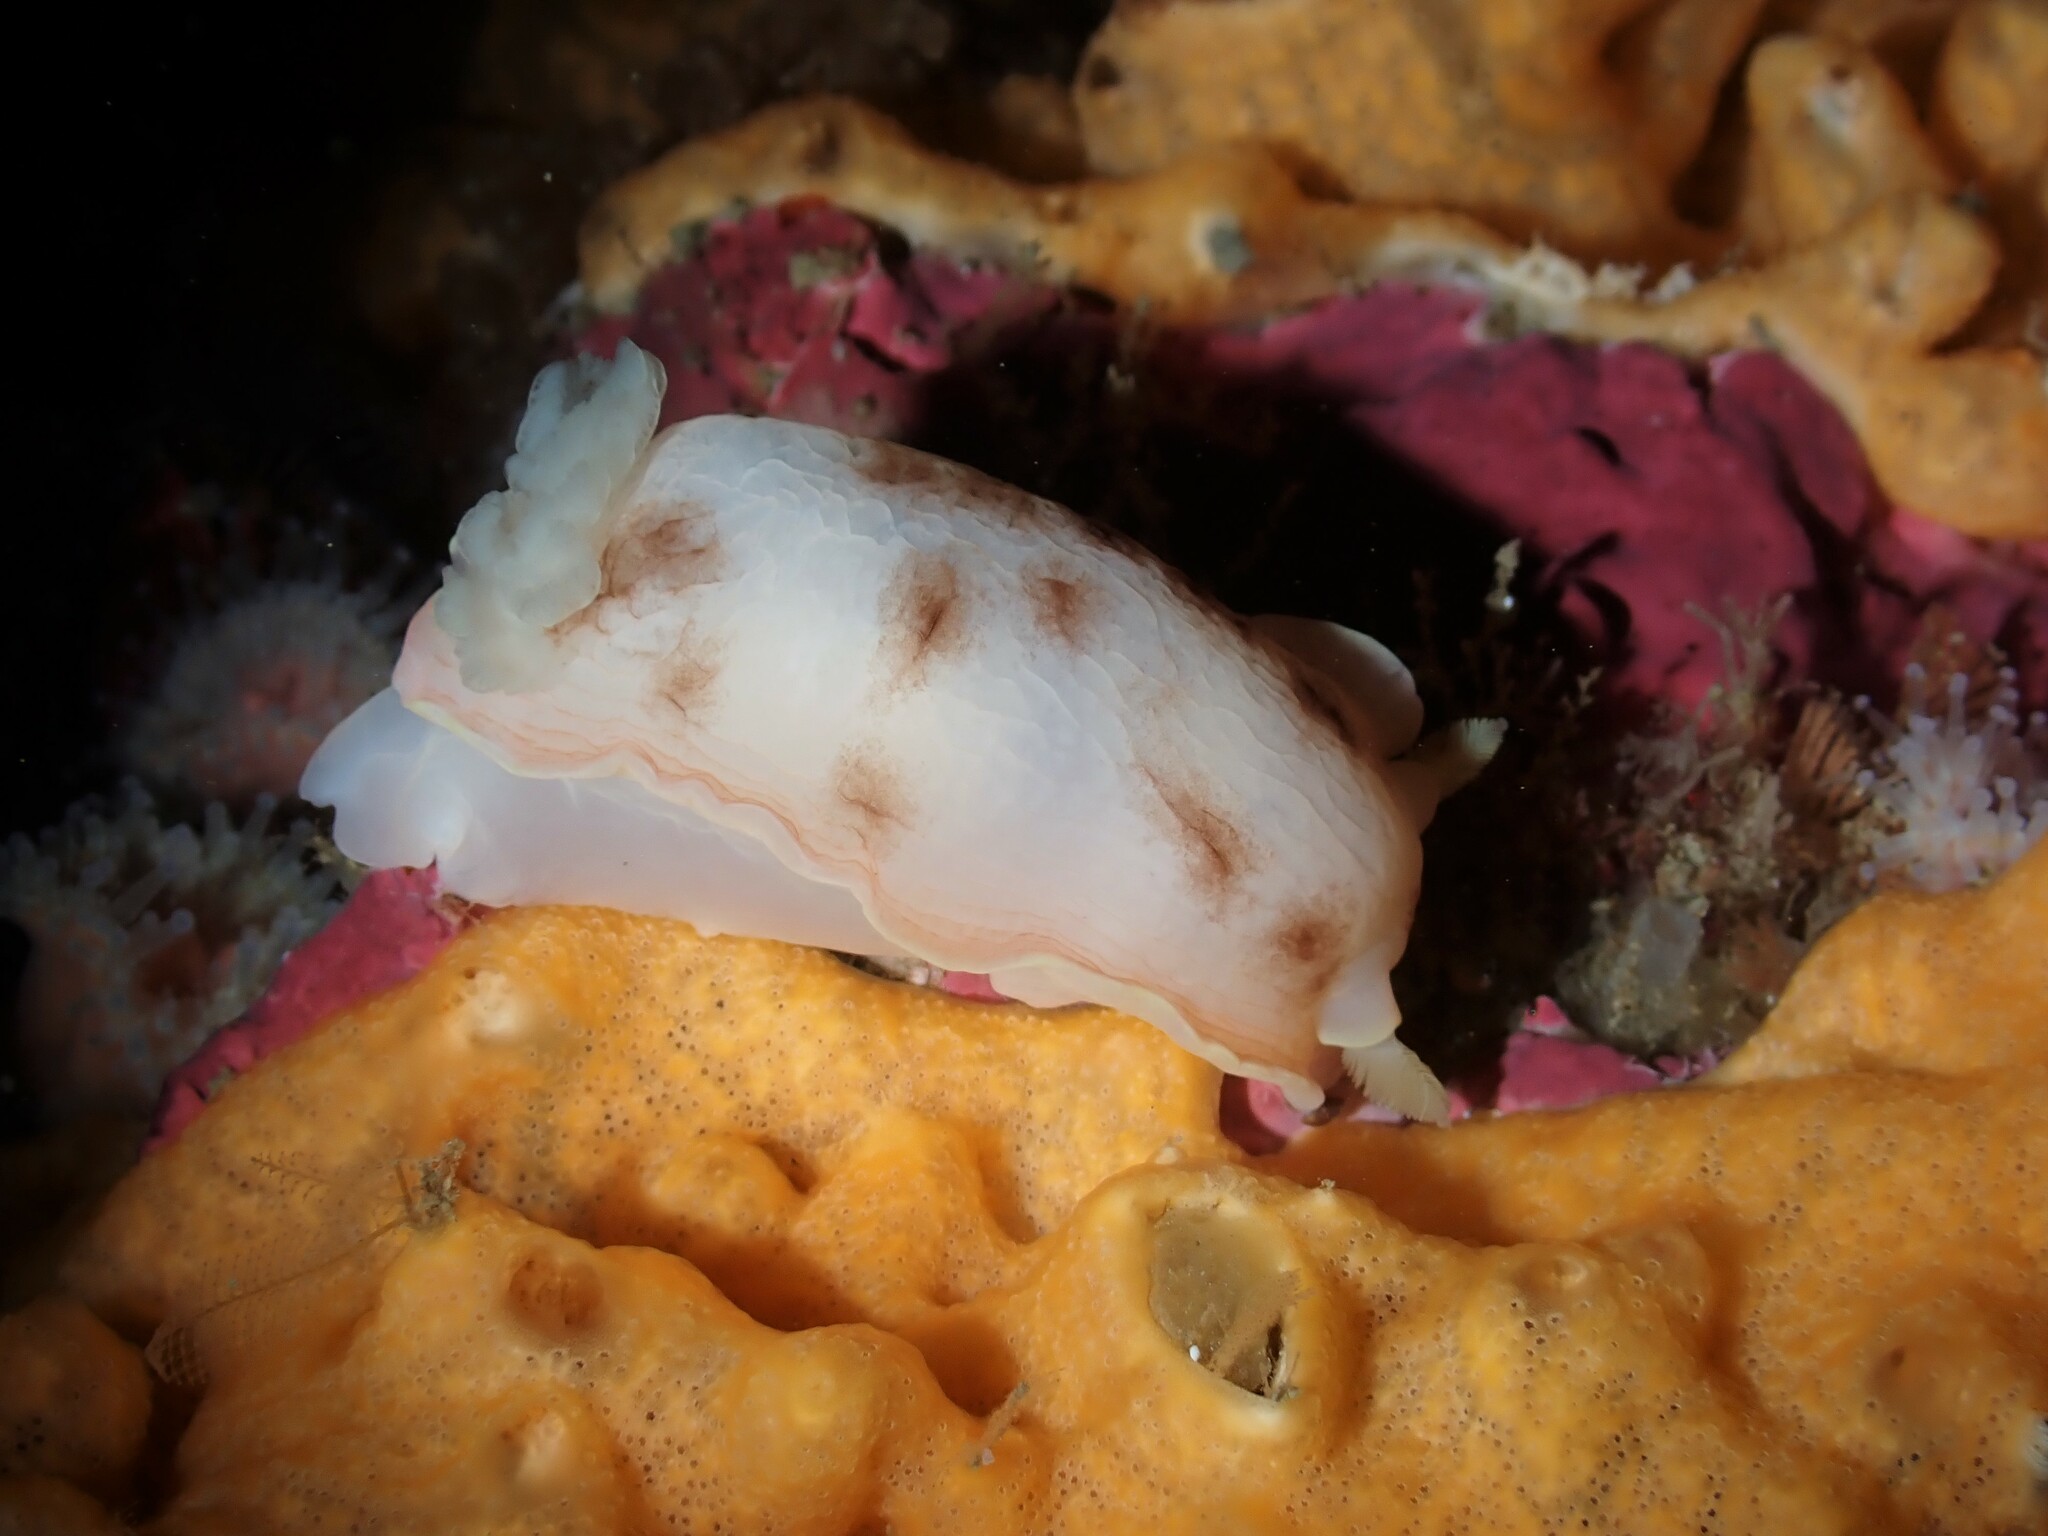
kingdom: Animalia
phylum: Mollusca
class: Gastropoda
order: Nudibranchia
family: Dorididae
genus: Aphelodoris
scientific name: Aphelodoris luctuosa
